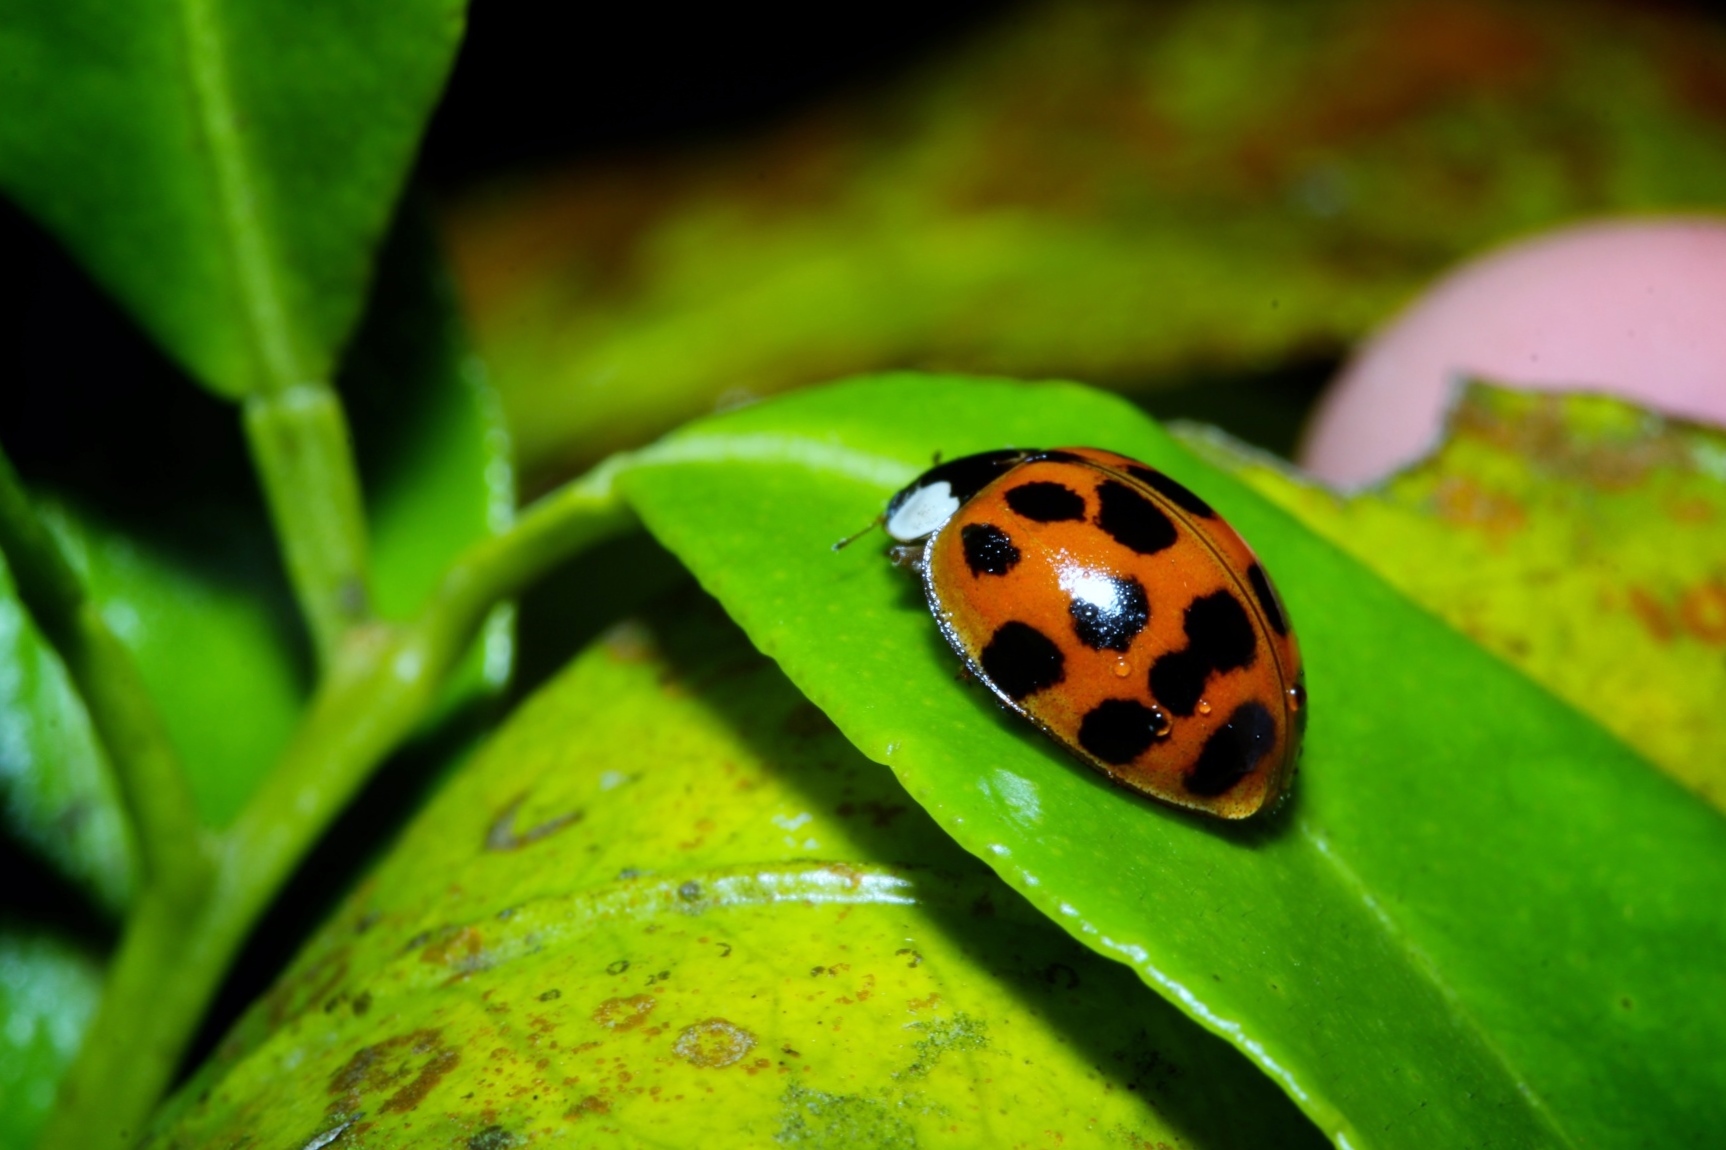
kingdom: Animalia
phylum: Arthropoda
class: Insecta
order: Coleoptera
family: Coccinellidae
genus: Harmonia
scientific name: Harmonia axyridis
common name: Harlequin ladybird
